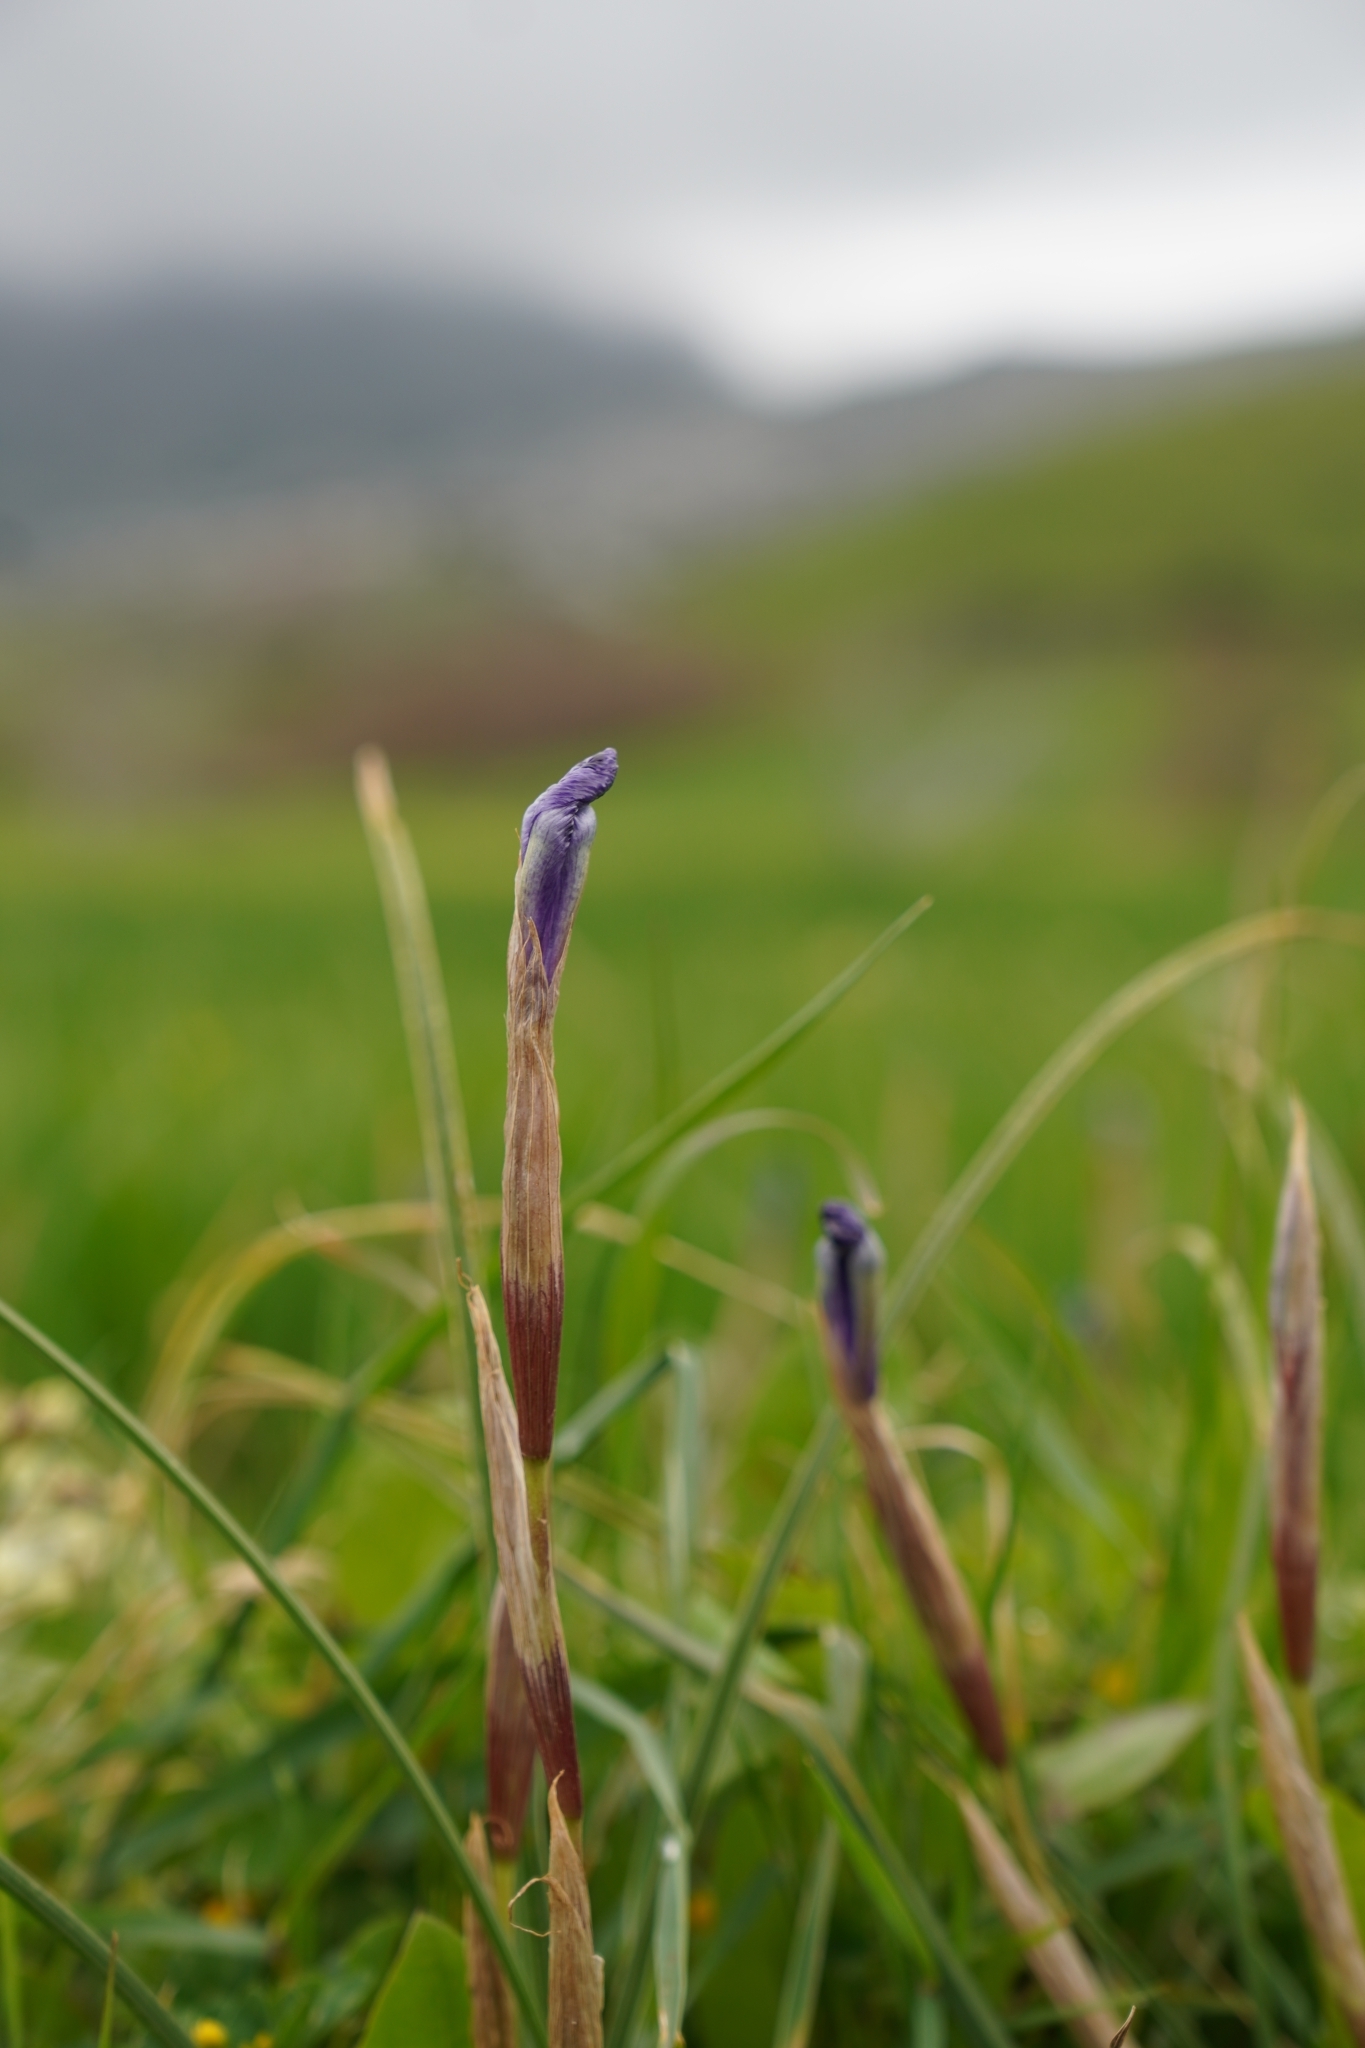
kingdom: Plantae
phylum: Tracheophyta
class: Liliopsida
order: Asparagales
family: Iridaceae
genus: Moraea
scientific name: Moraea sisyrinchium
